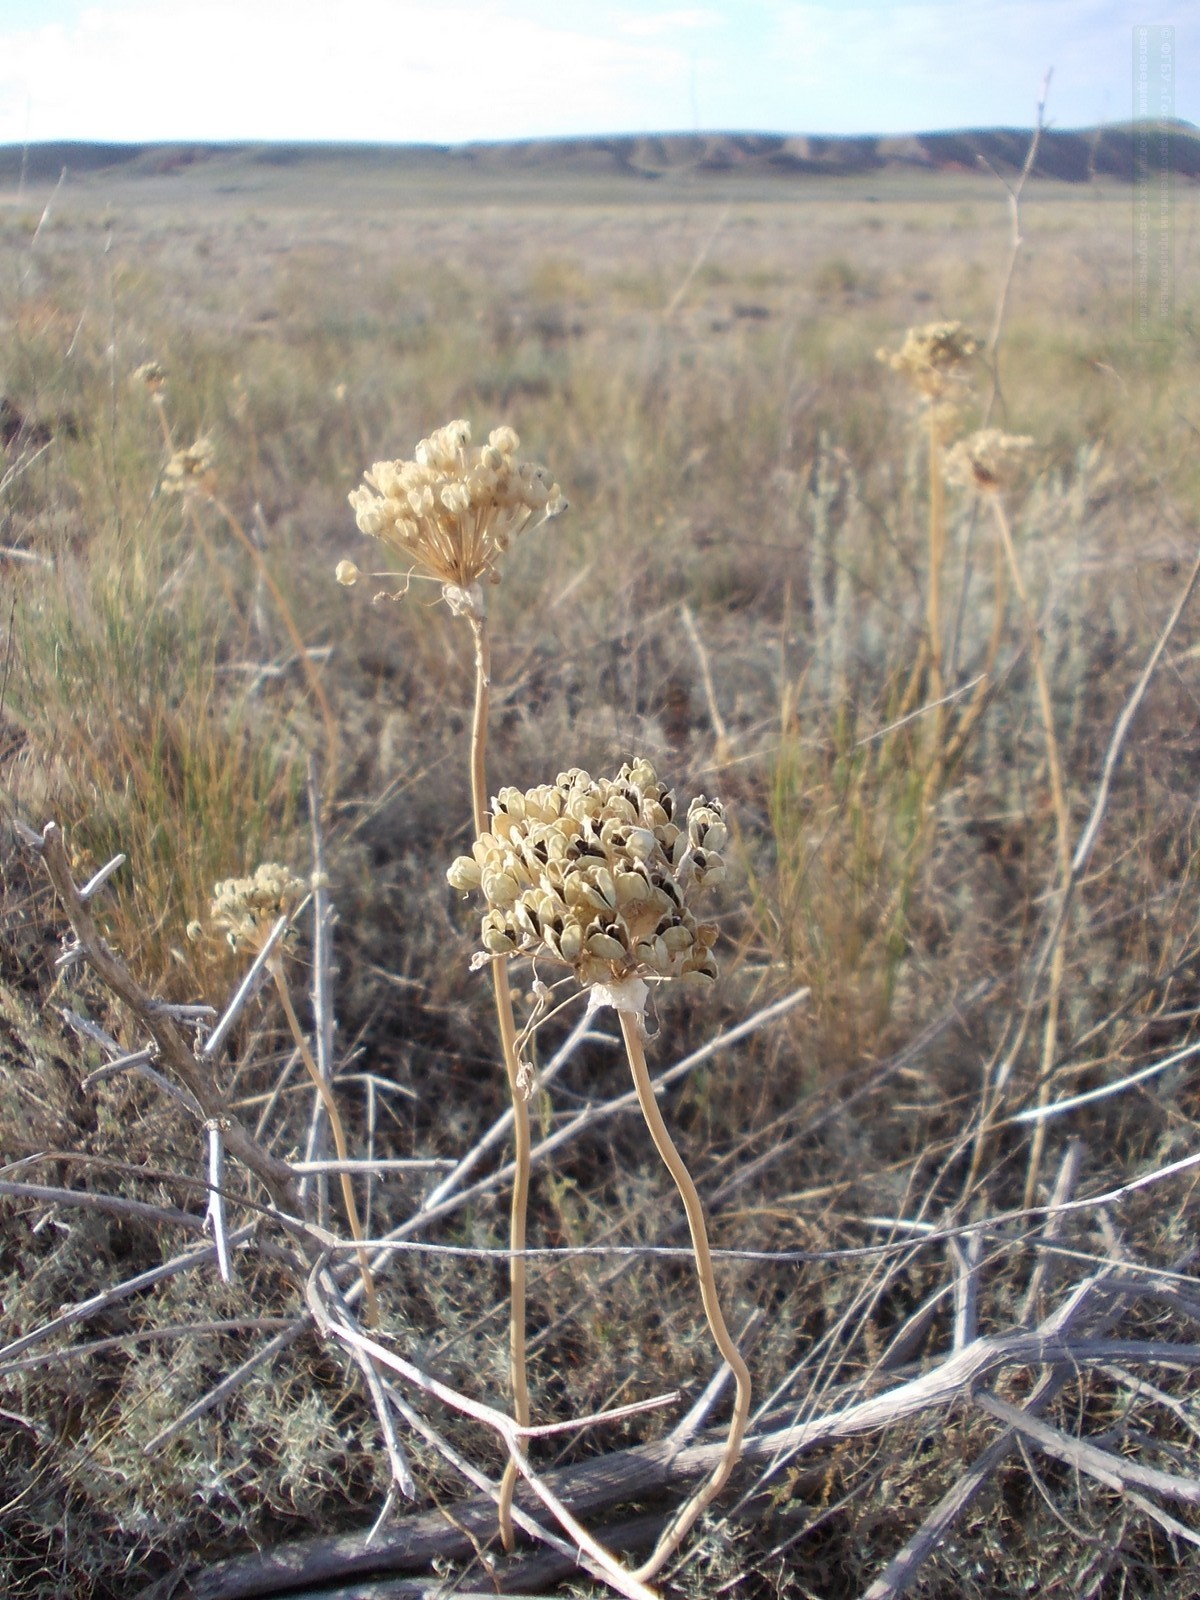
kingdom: Plantae
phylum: Tracheophyta
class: Liliopsida
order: Asparagales
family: Amaryllidaceae
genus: Allium
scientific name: Allium tulipifolium
